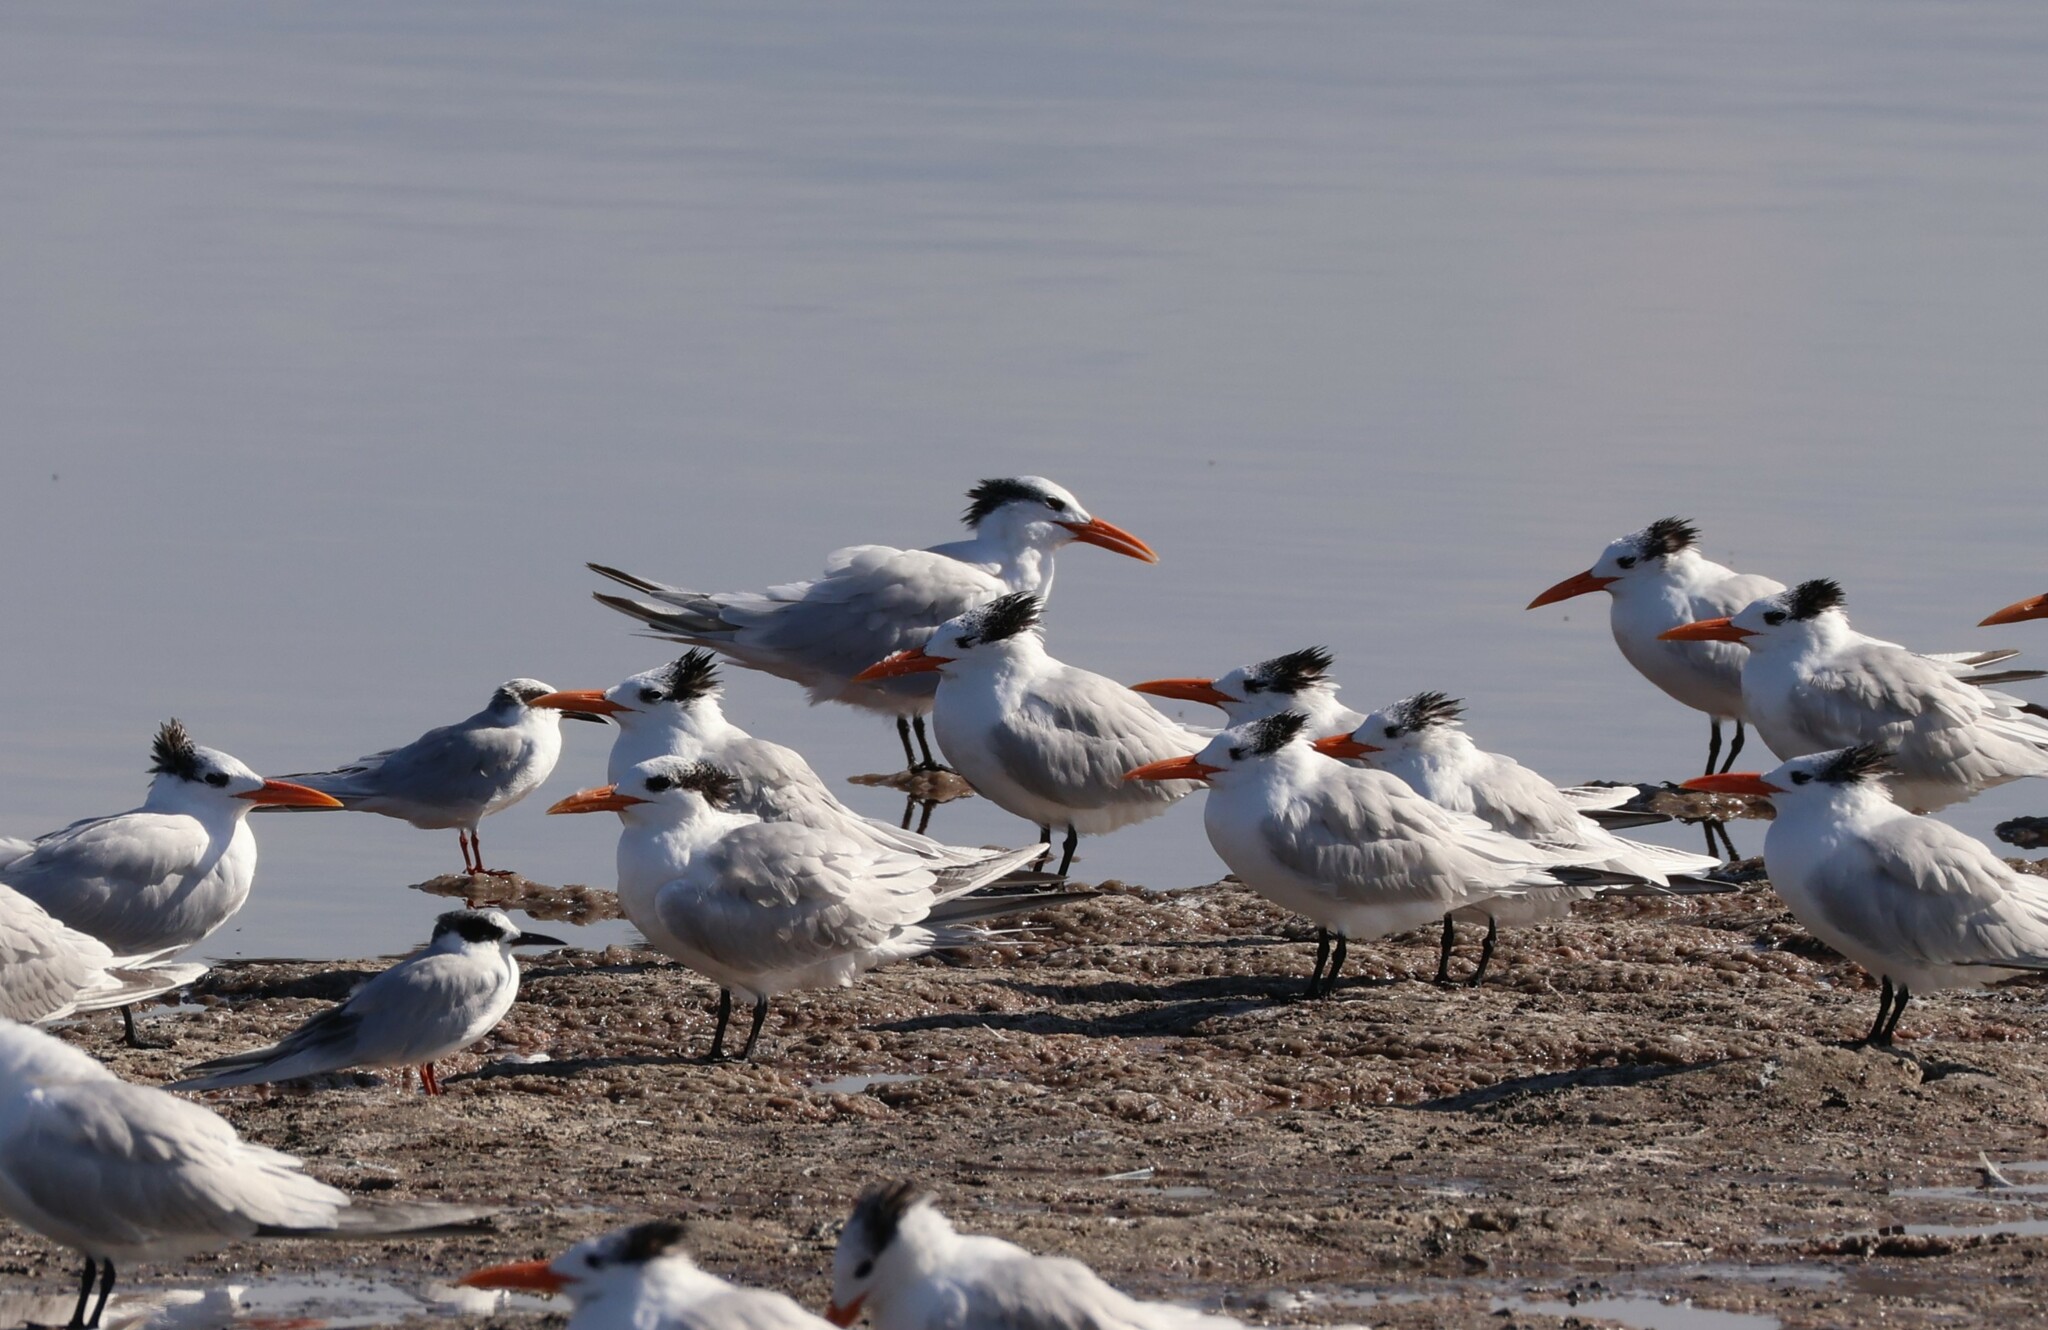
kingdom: Animalia
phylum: Chordata
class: Aves
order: Charadriiformes
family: Laridae
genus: Thalasseus
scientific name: Thalasseus maximus
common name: Royal tern
